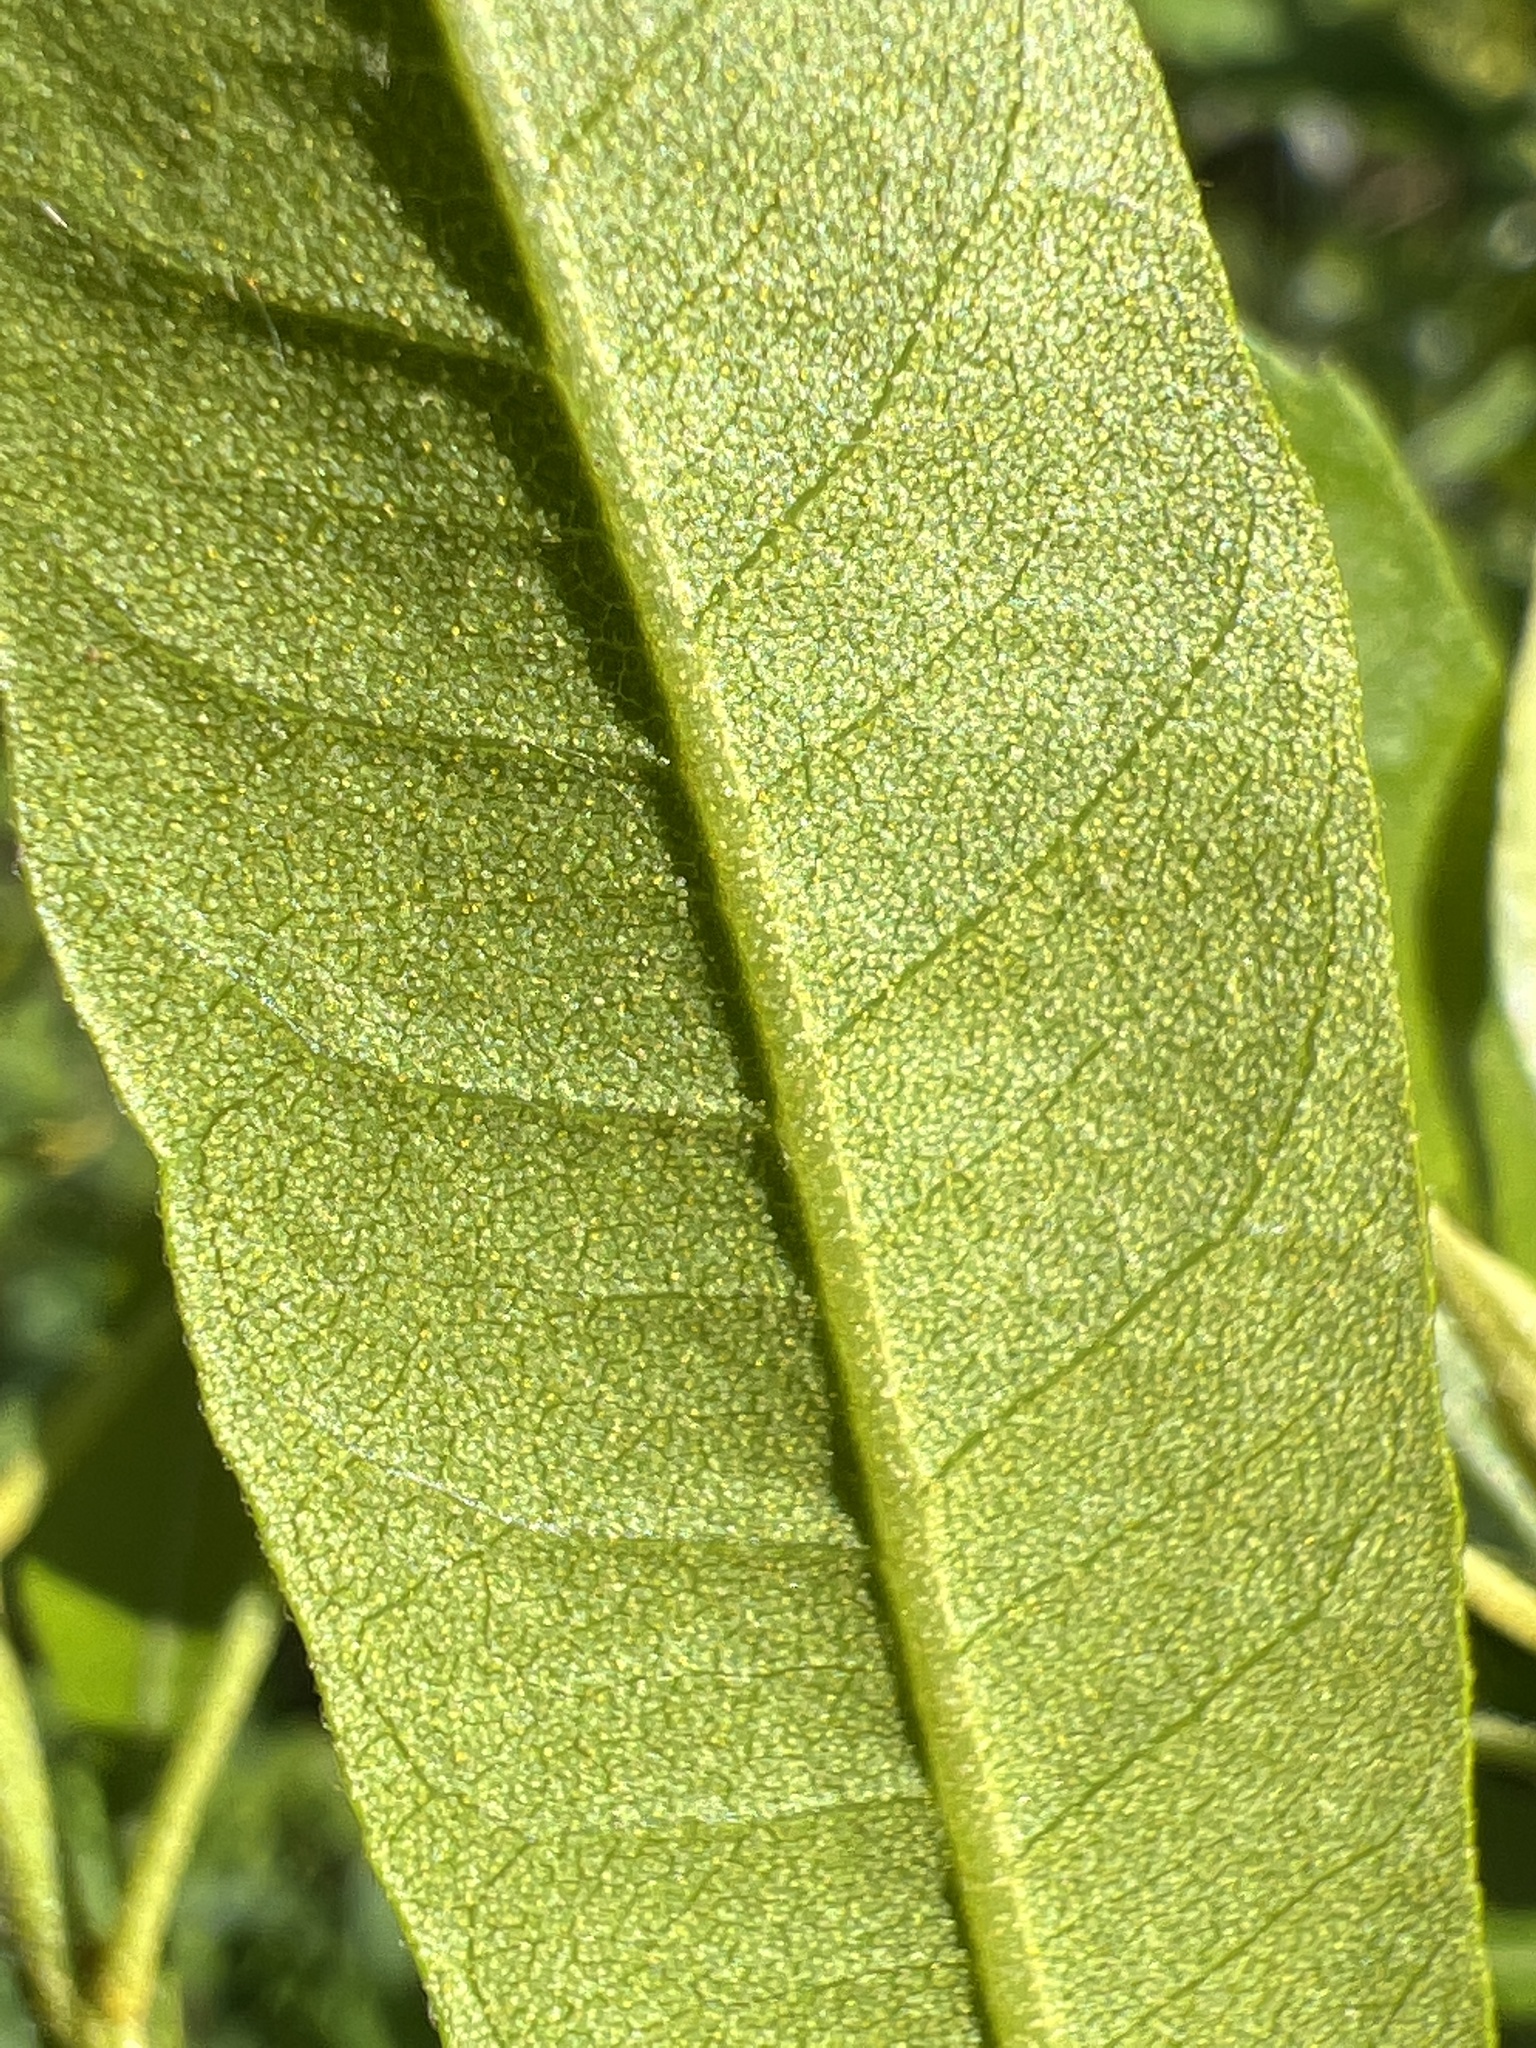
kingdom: Plantae
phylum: Tracheophyta
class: Magnoliopsida
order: Fagales
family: Myricaceae
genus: Morella
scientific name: Morella cerifera
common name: Wax myrtle
